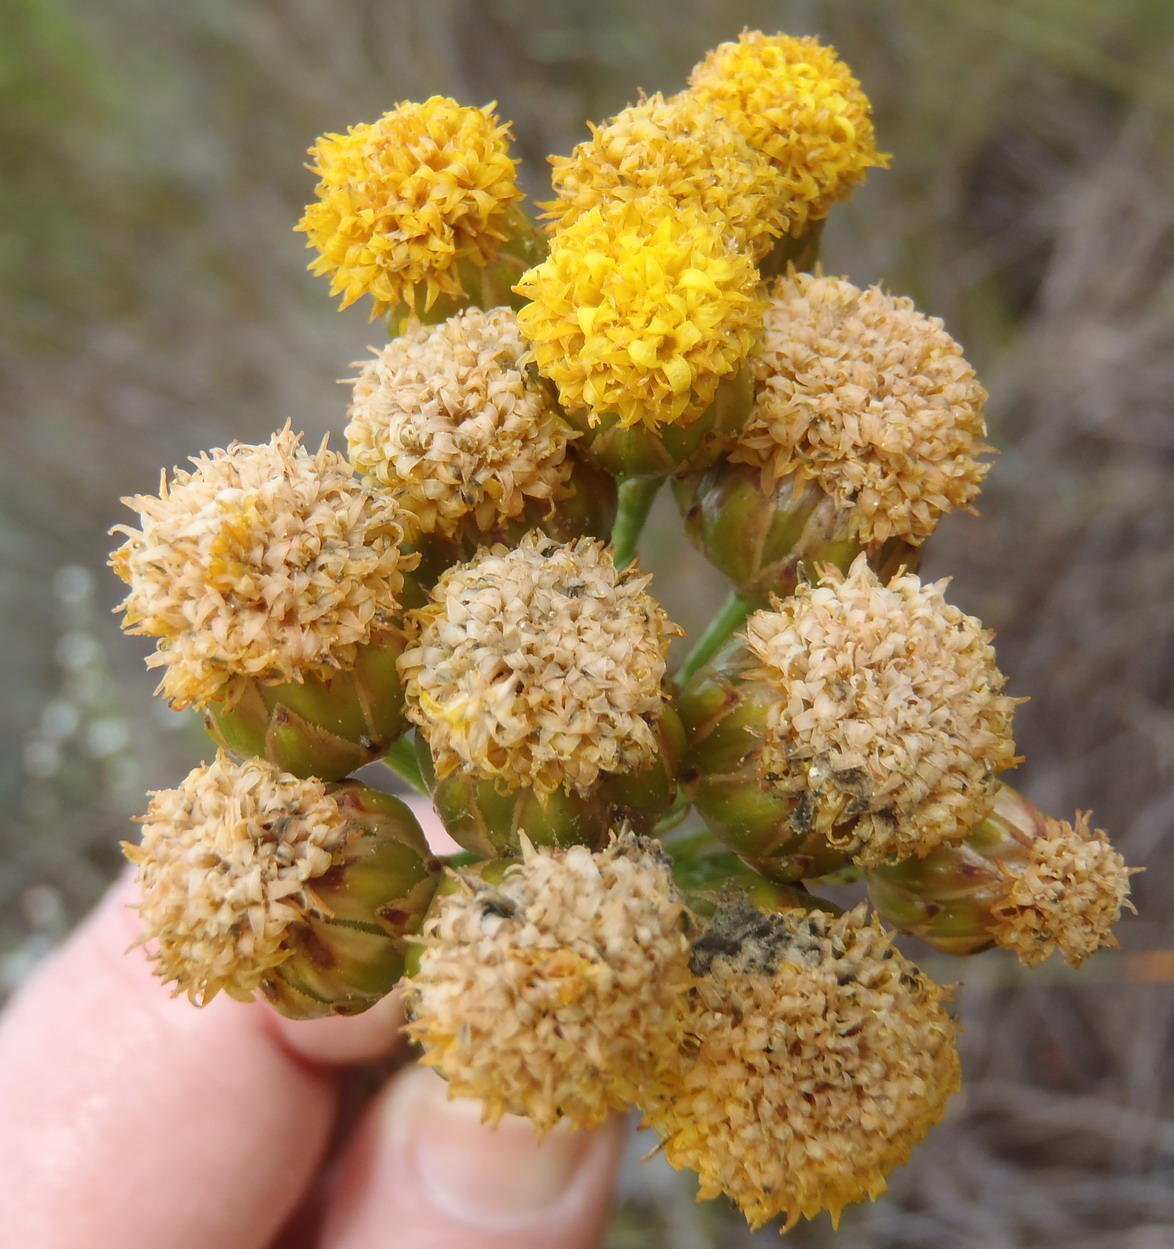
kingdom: Plantae
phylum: Tracheophyta
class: Magnoliopsida
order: Asterales
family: Asteraceae
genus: Athanasia
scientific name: Athanasia linifolia
